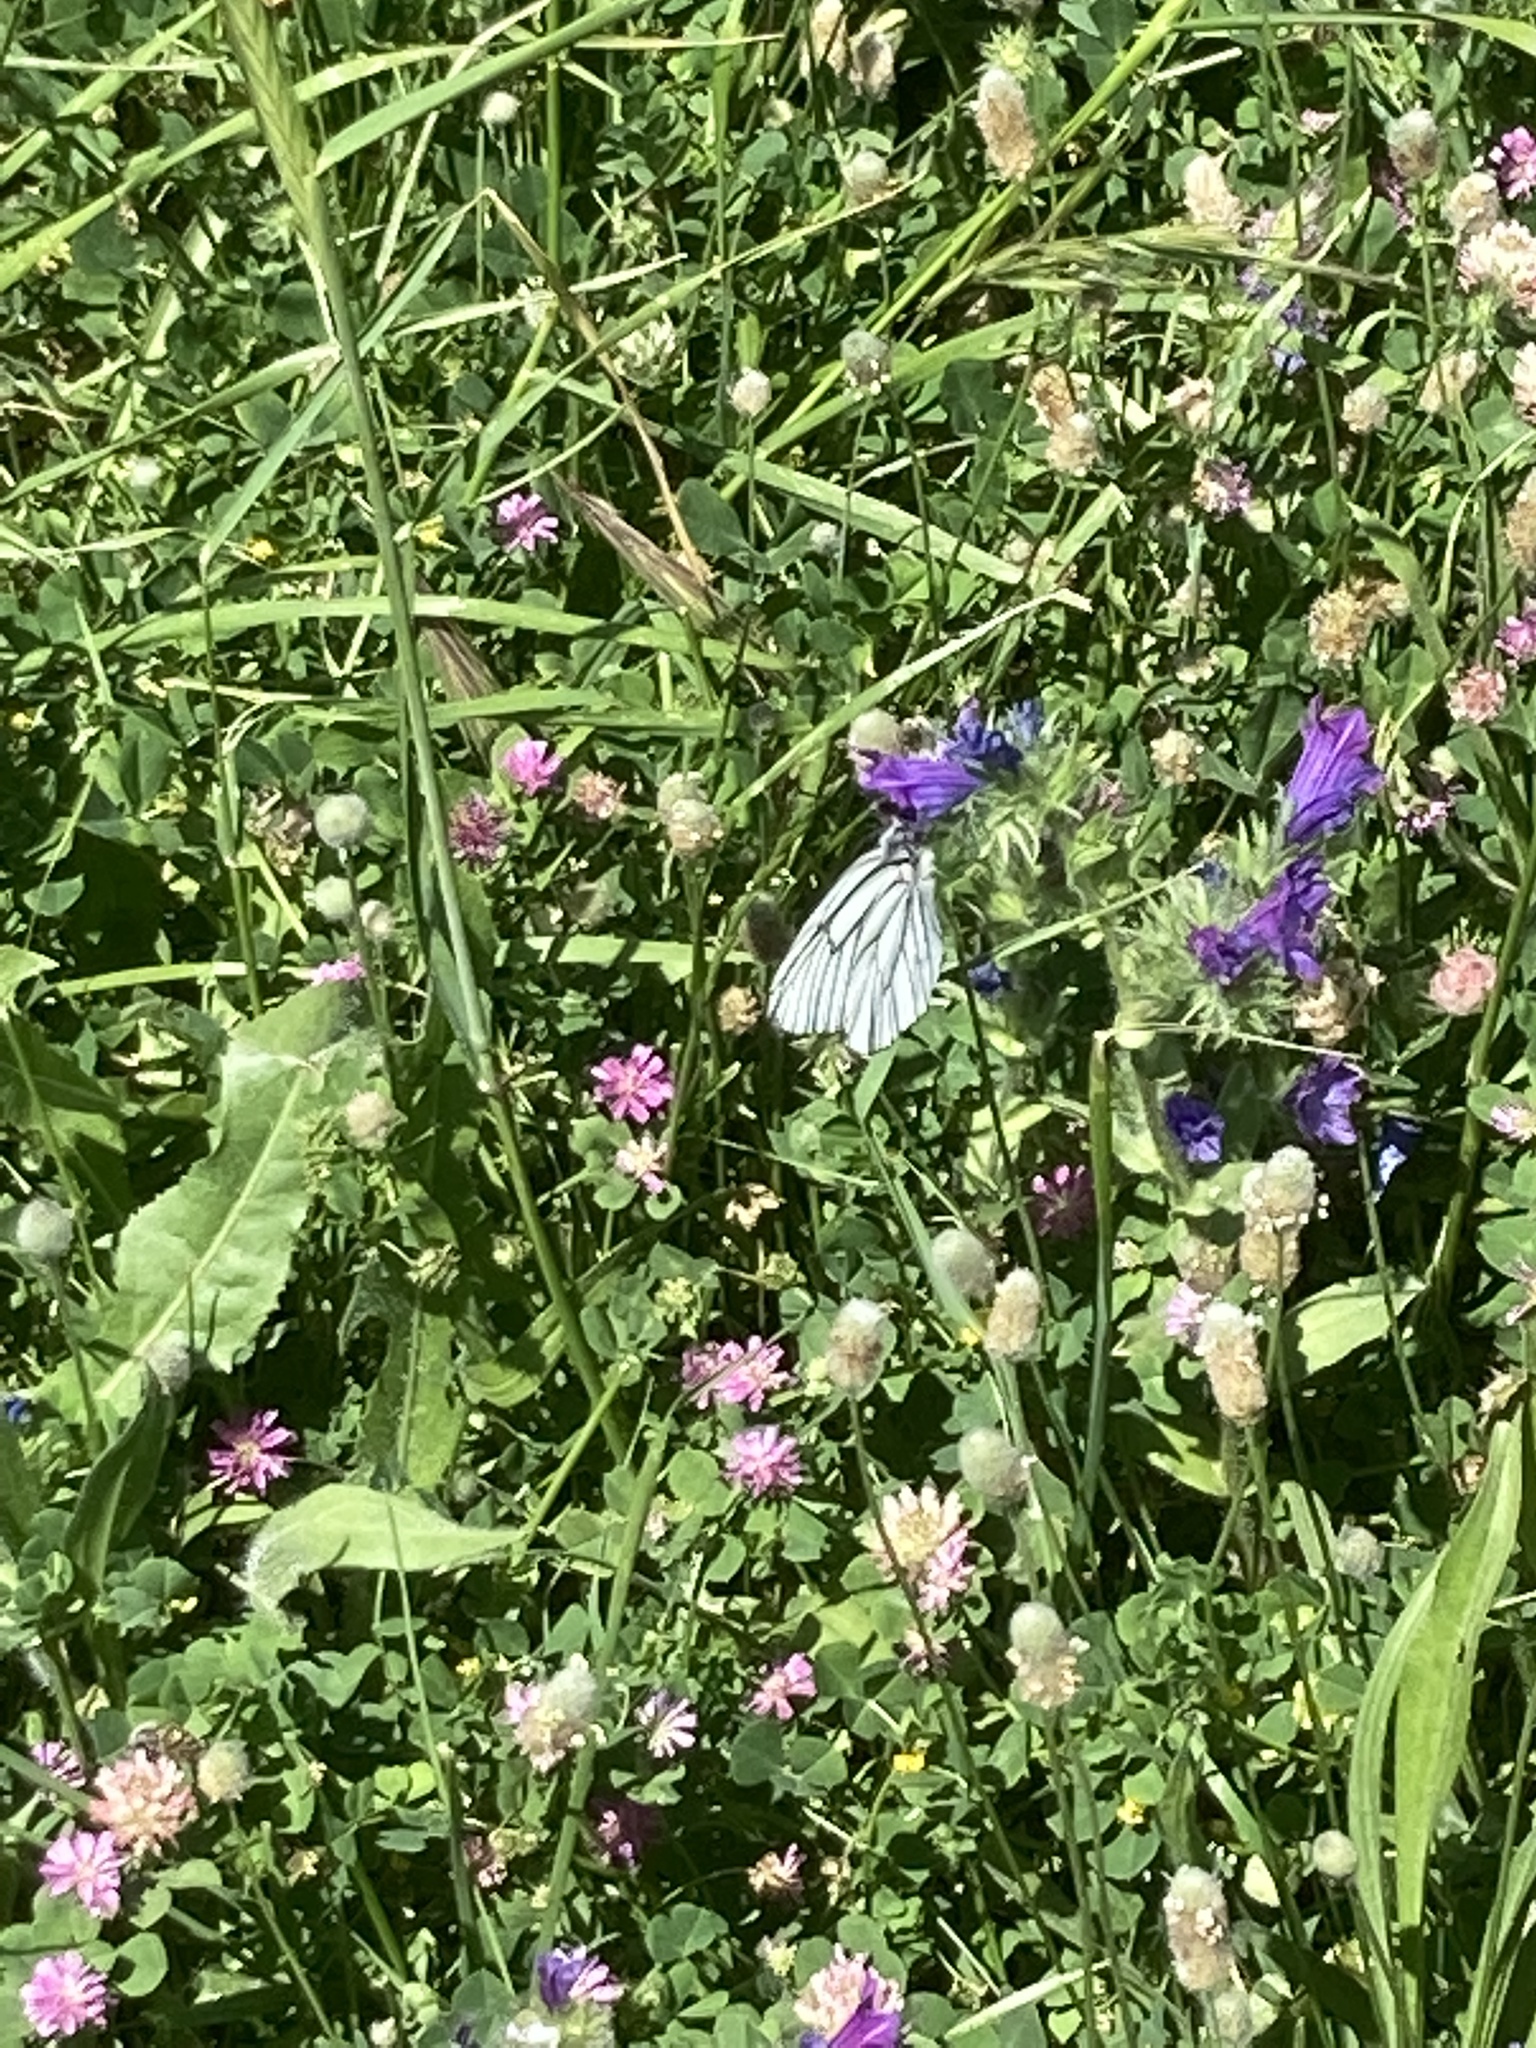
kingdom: Animalia
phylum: Arthropoda
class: Insecta
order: Lepidoptera
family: Pieridae
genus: Aporia
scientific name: Aporia crataegi
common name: Black-veined white
